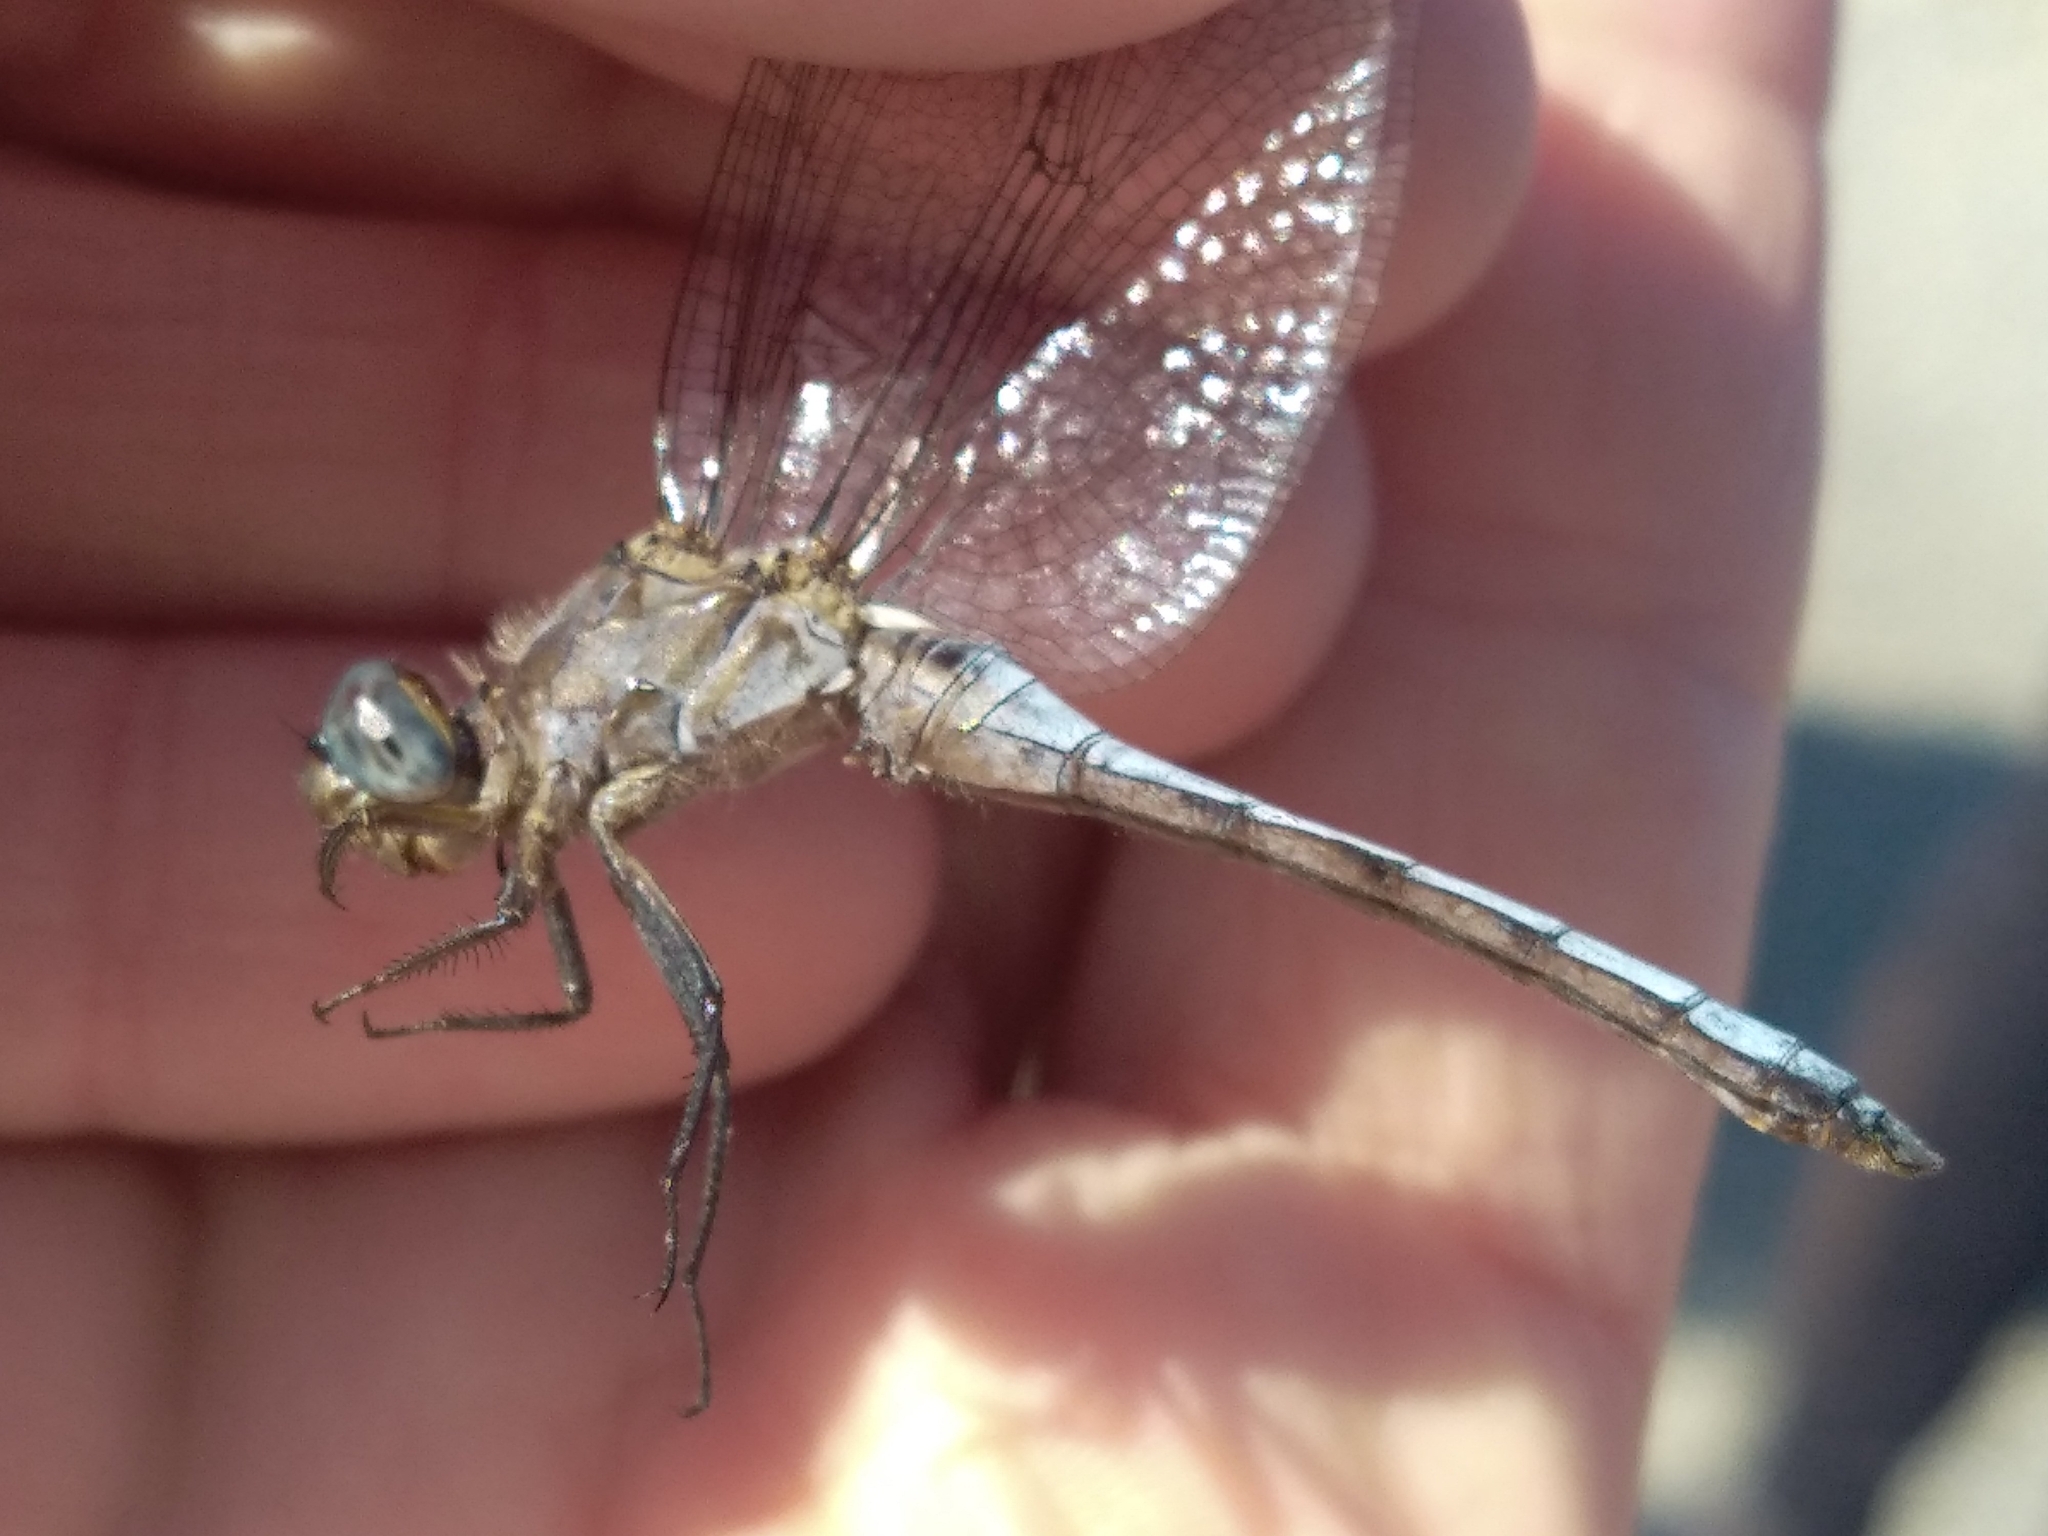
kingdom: Animalia
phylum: Arthropoda
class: Insecta
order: Odonata
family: Libellulidae
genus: Orthetrum
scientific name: Orthetrum coerulescens
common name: Keeled skimmer
